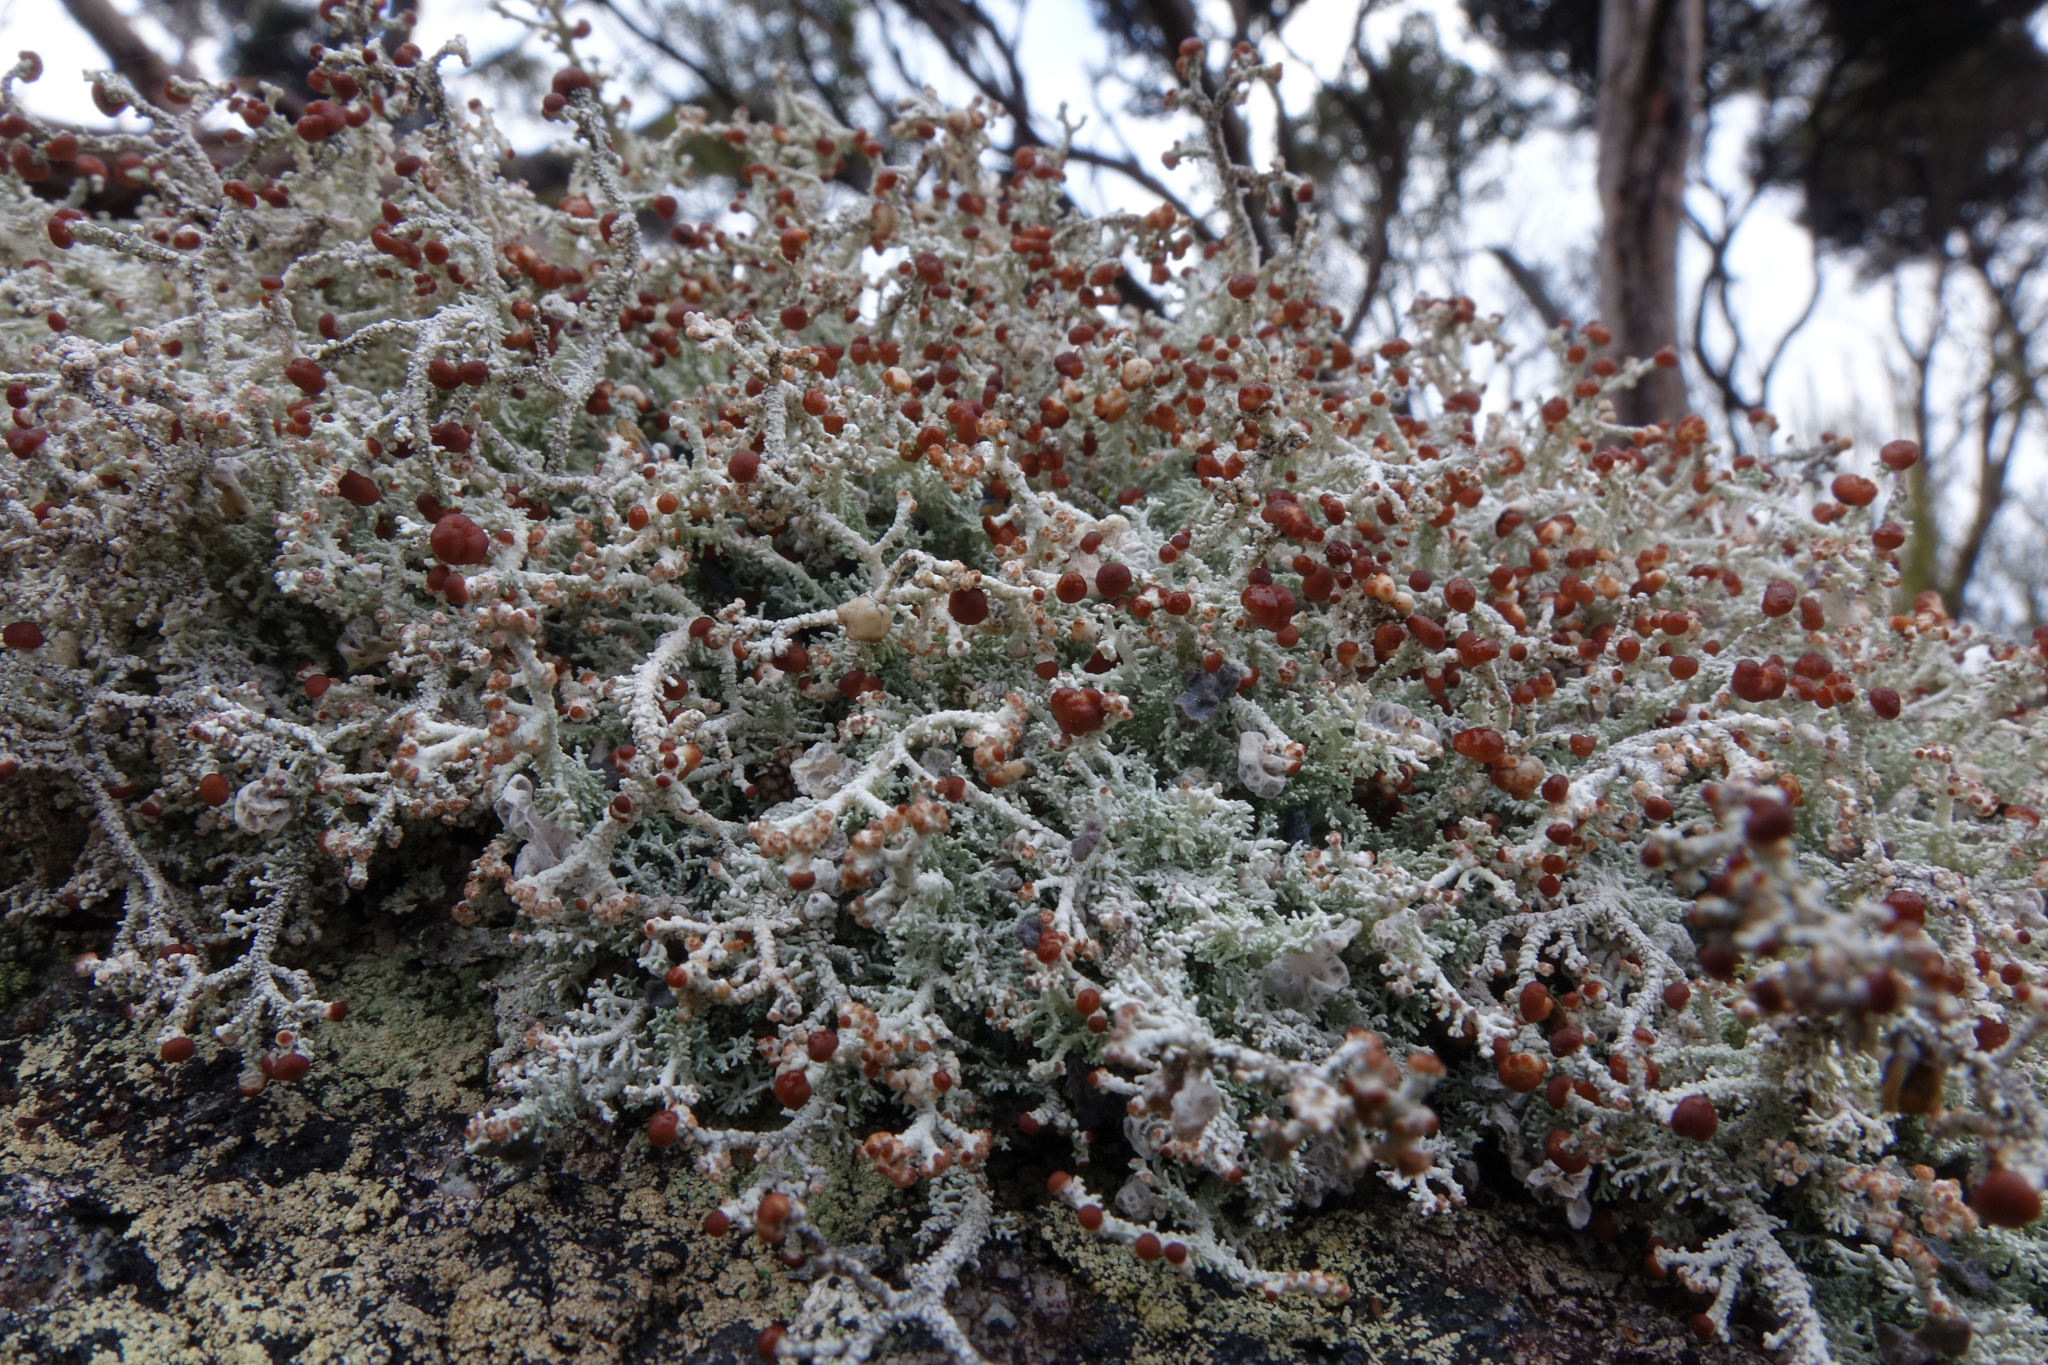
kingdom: Fungi
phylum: Ascomycota
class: Lecanoromycetes
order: Lecanorales
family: Stereocaulaceae
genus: Stereocaulon
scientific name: Stereocaulon ramulosum
